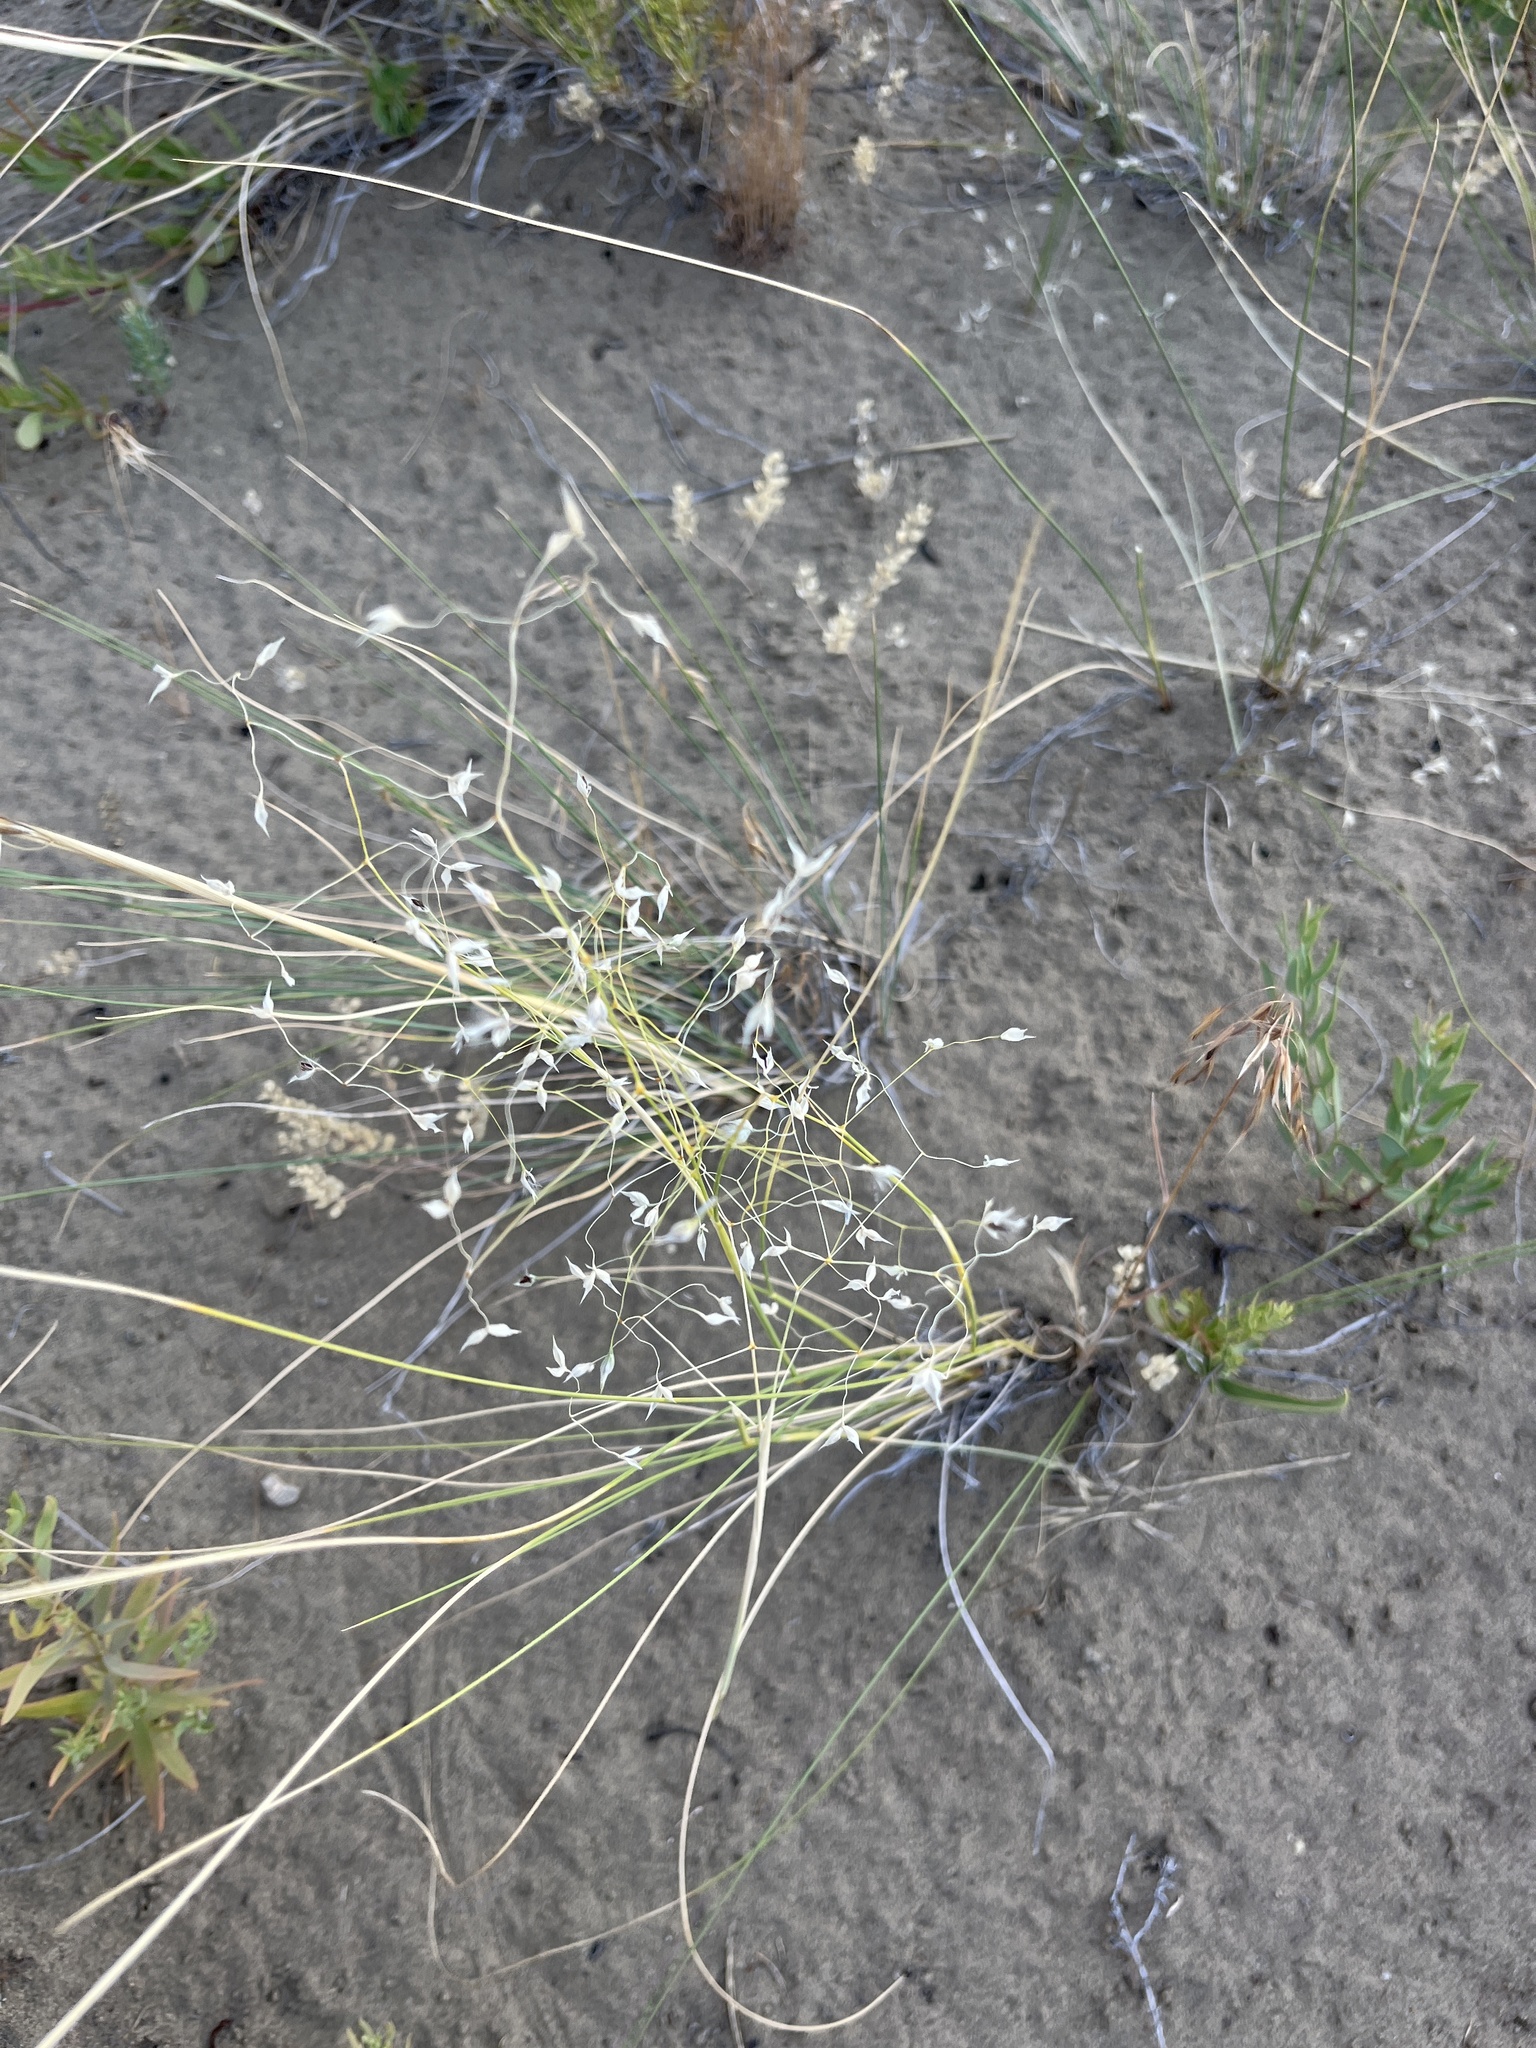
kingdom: Plantae
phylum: Tracheophyta
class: Liliopsida
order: Poales
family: Poaceae
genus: Eriocoma
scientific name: Eriocoma hymenoides
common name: Indian mountain ricegrass
